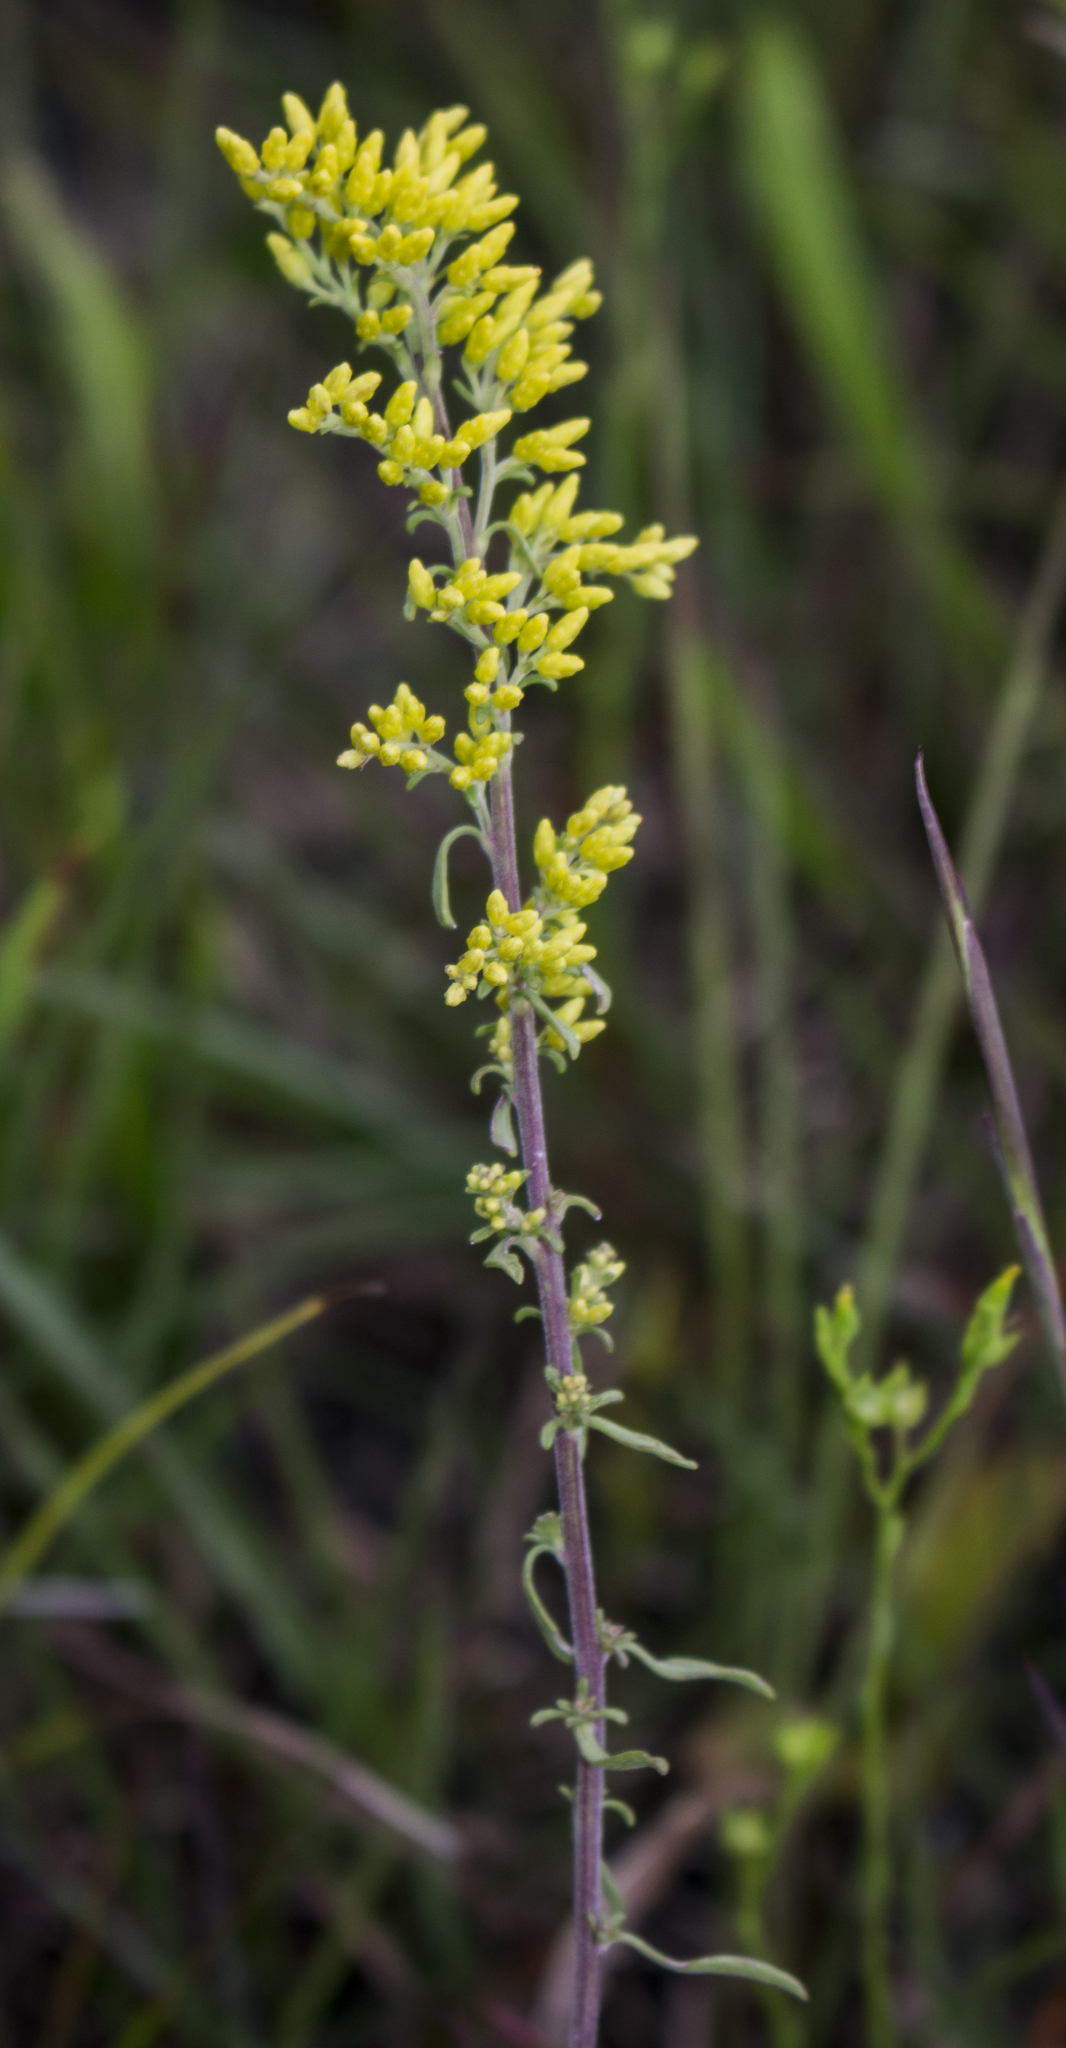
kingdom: Plantae
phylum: Tracheophyta
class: Magnoliopsida
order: Asterales
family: Asteraceae
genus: Solidago
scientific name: Solidago nemoralis
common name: Grey goldenrod
